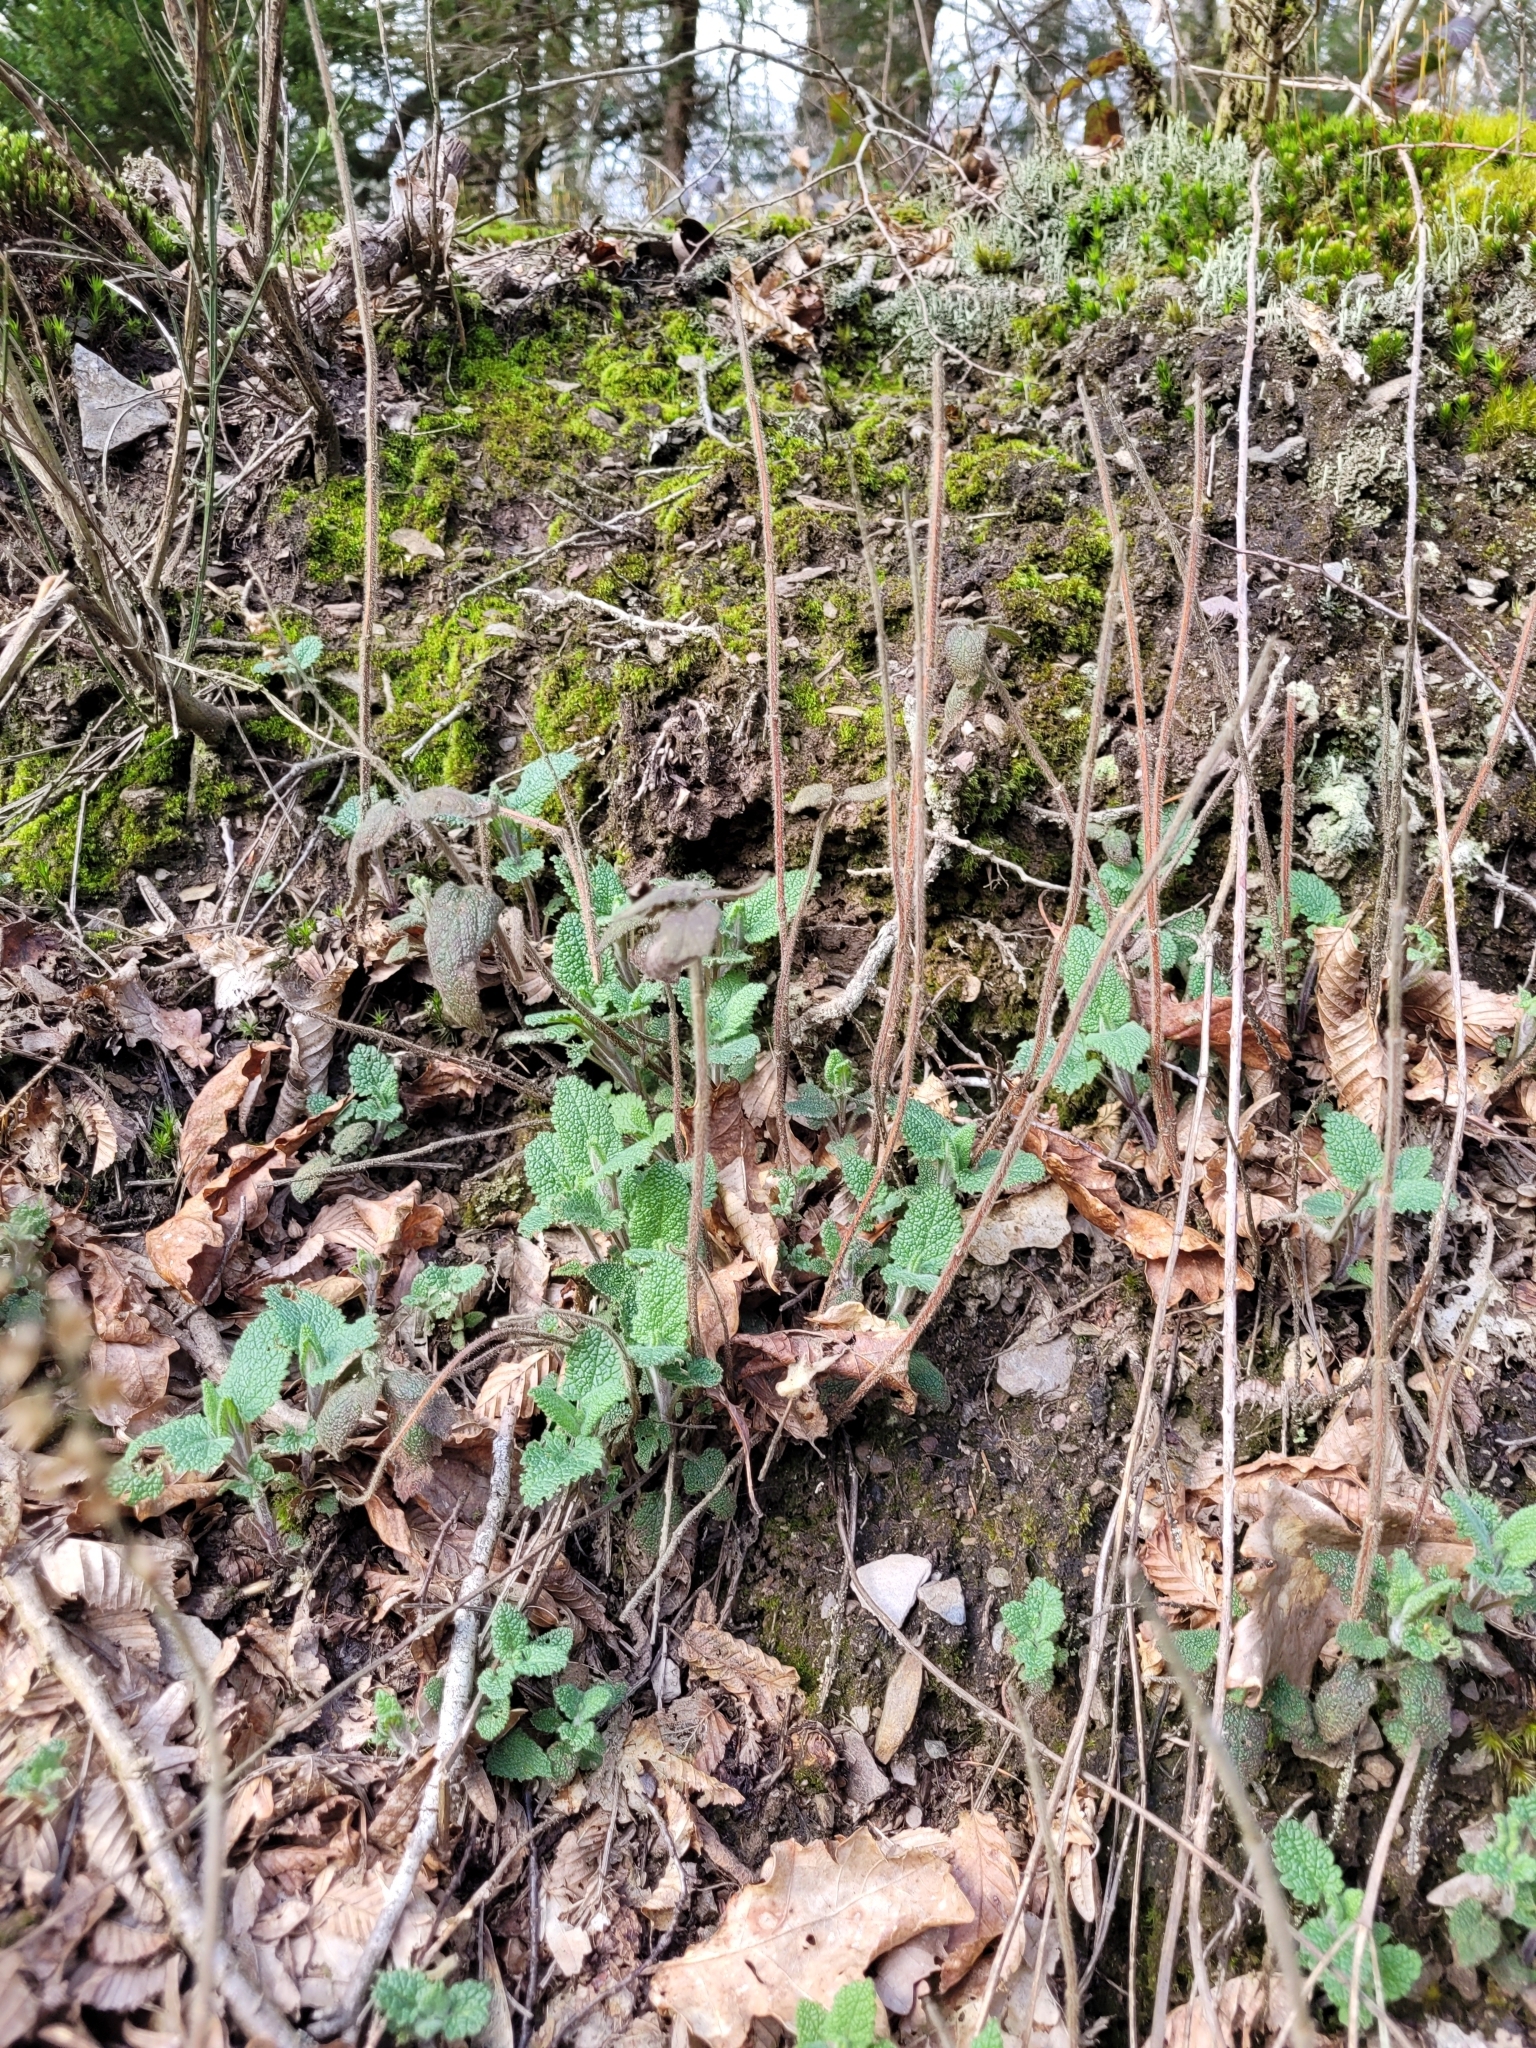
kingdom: Plantae
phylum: Tracheophyta
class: Magnoliopsida
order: Lamiales
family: Lamiaceae
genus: Teucrium
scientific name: Teucrium scorodonia
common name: Woodland germander
